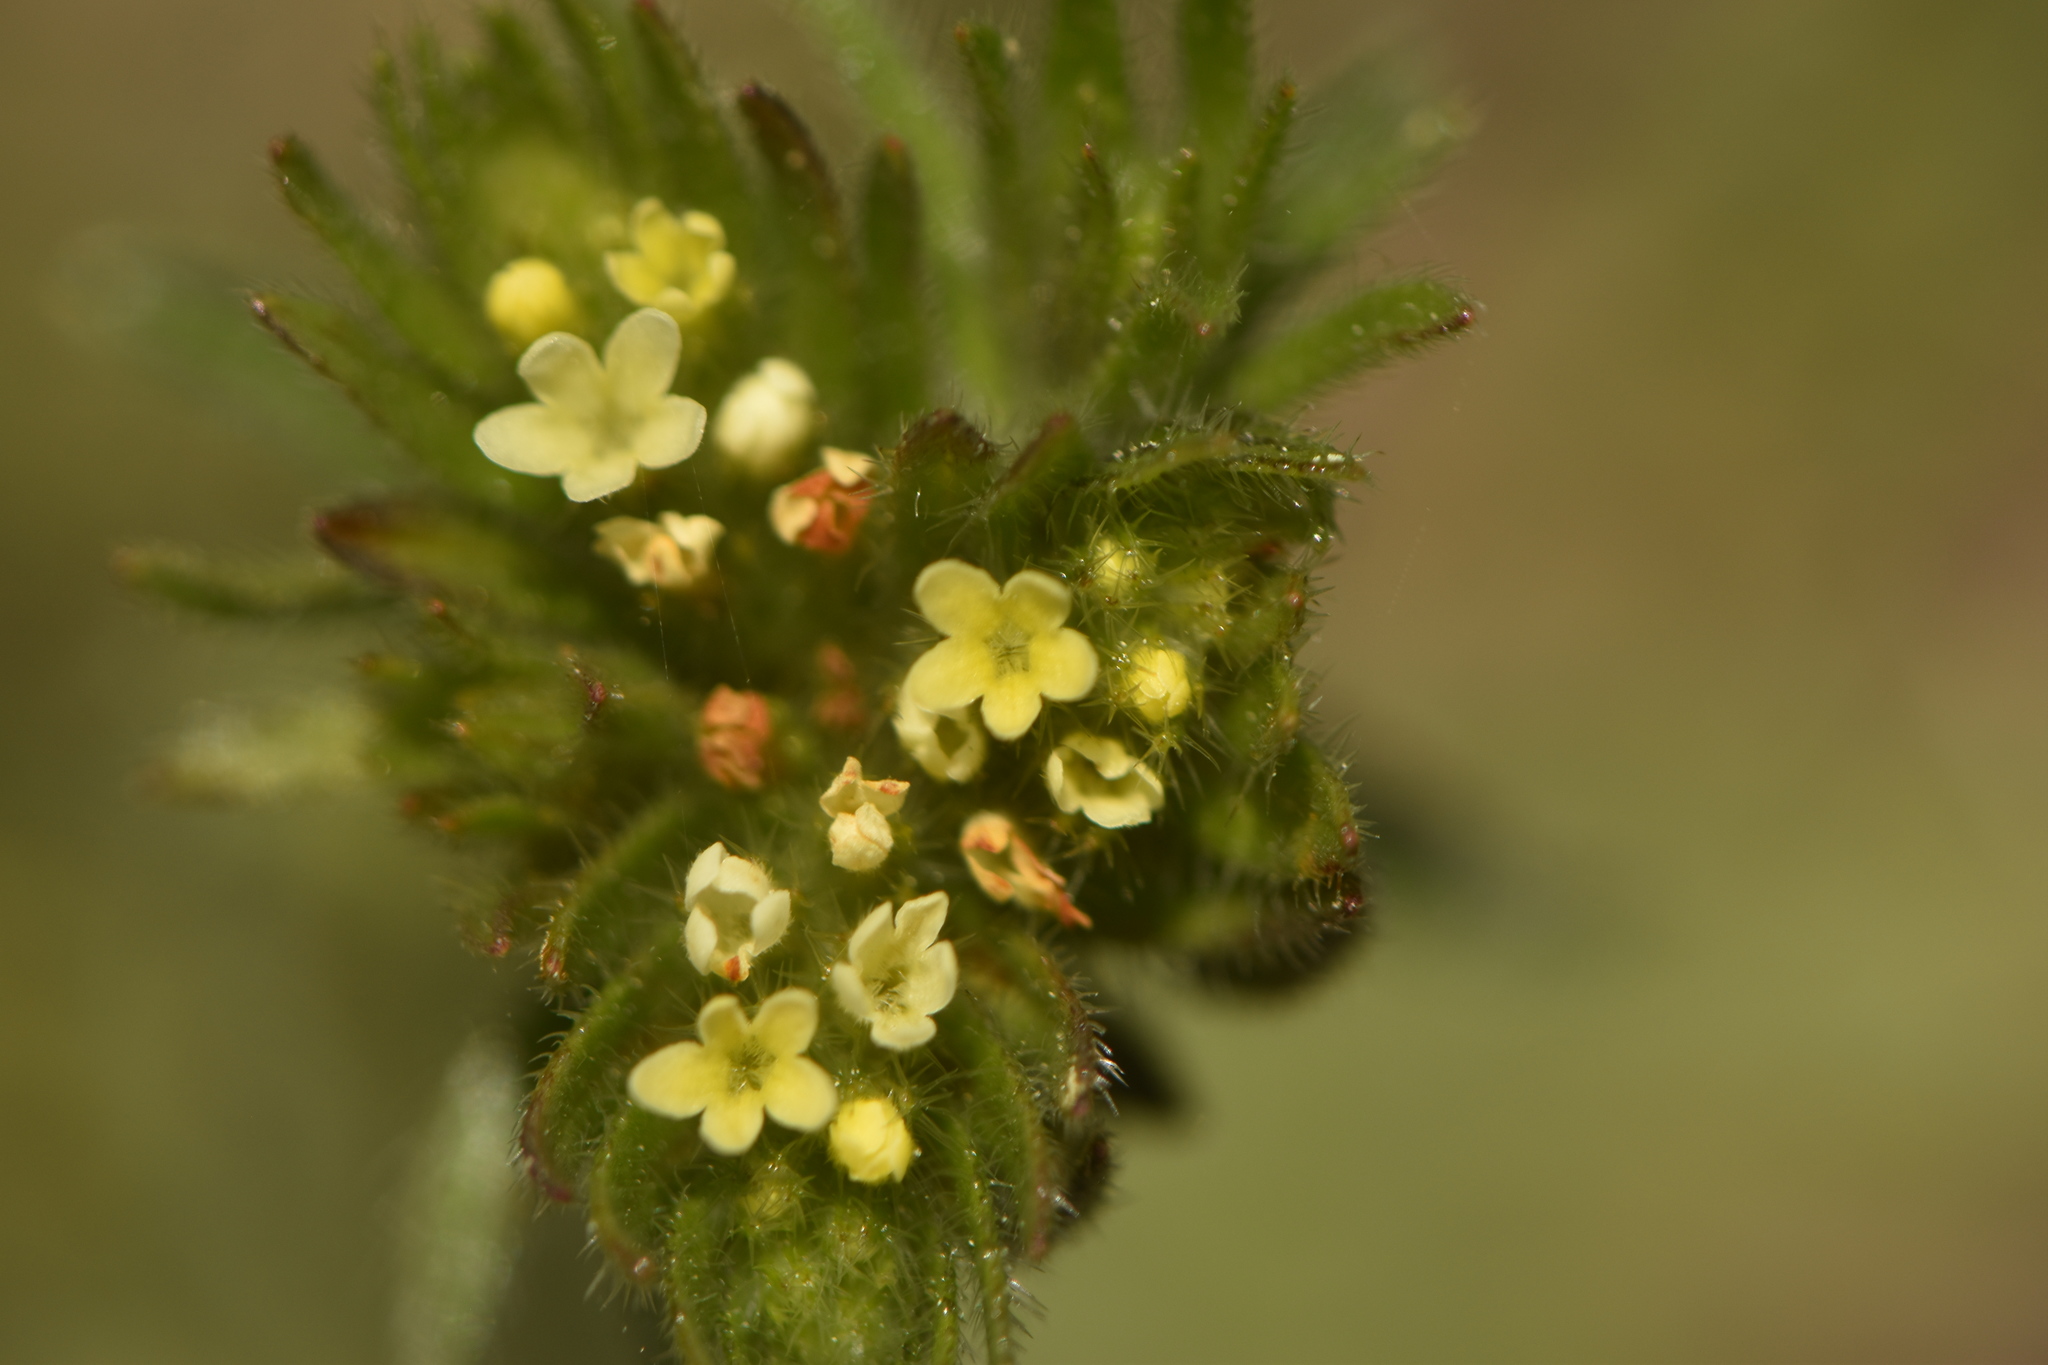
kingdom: Plantae
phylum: Tracheophyta
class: Magnoliopsida
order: Boraginales
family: Boraginaceae
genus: Neatostema
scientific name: Neatostema apulum
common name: Hairy sheepweed
